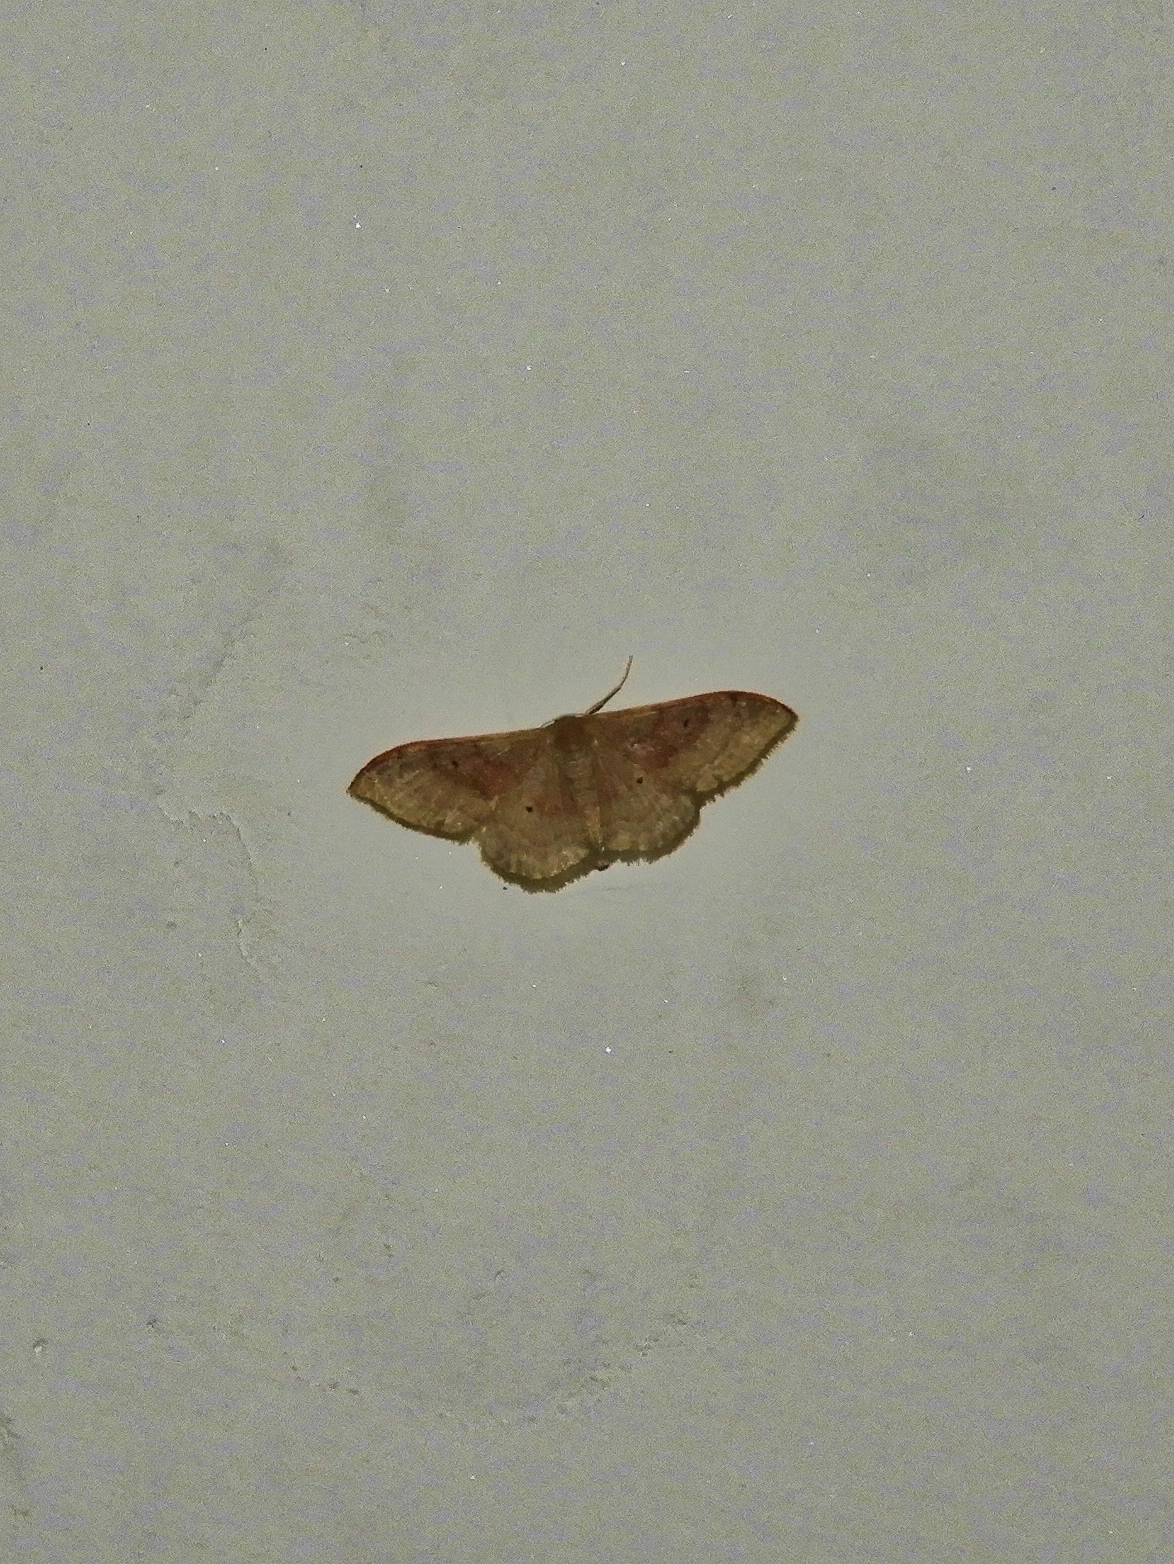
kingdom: Animalia
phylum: Arthropoda
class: Insecta
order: Lepidoptera
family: Geometridae
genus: Idaea
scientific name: Idaea degeneraria
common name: Portland ribbon wave
